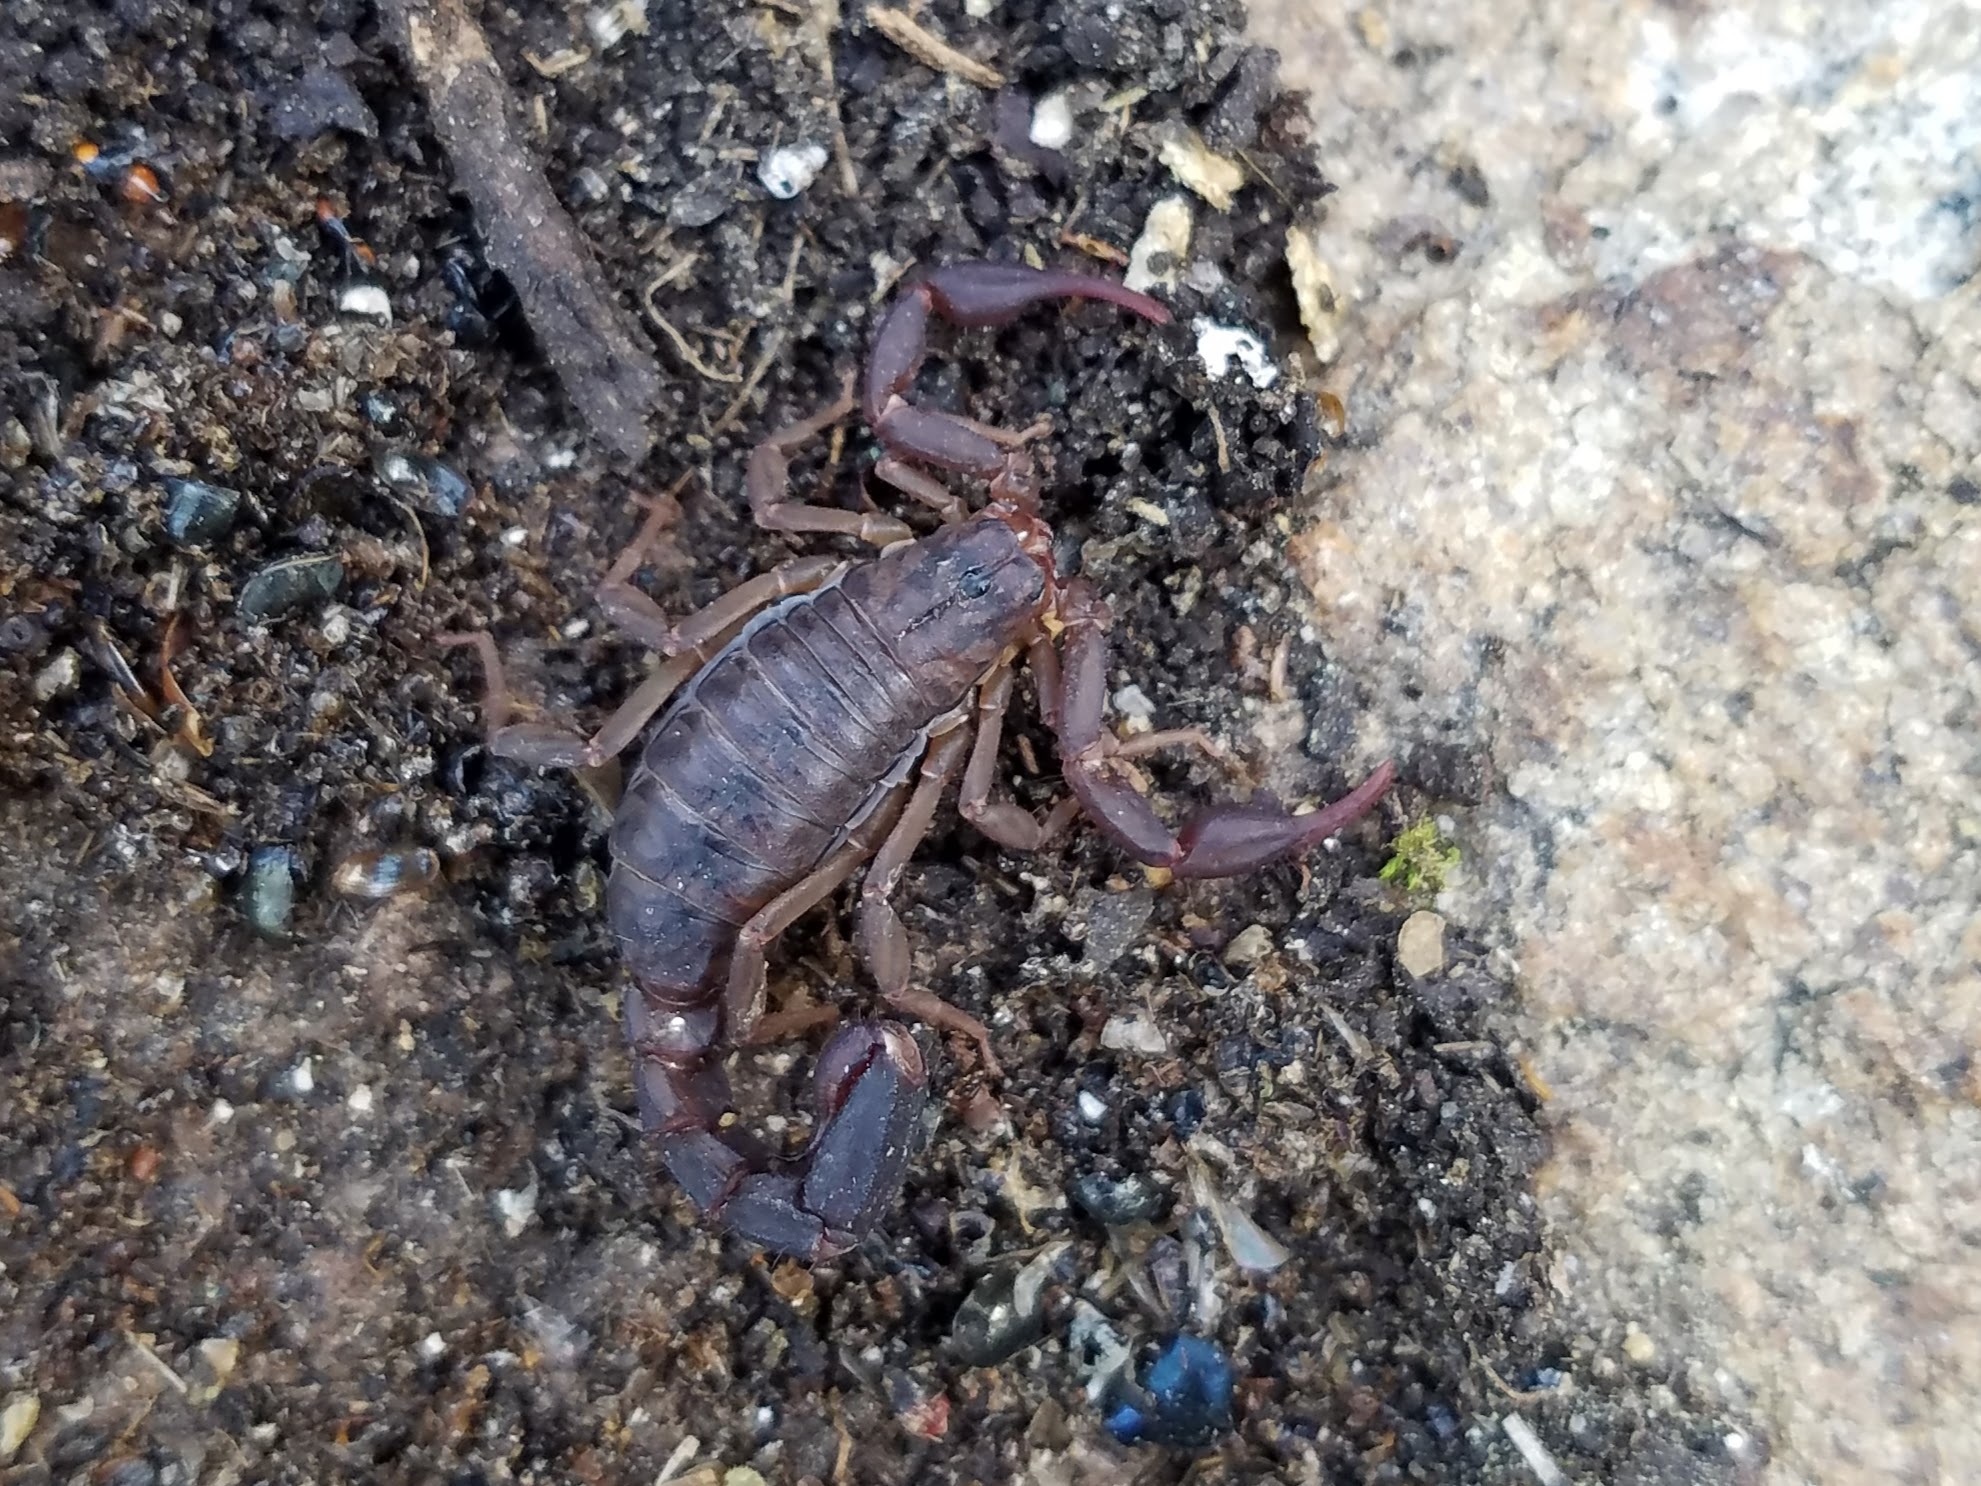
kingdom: Animalia
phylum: Arthropoda
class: Arachnida
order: Scorpiones
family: Vaejovidae
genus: Vaejovis
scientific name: Vaejovis carolinianus
